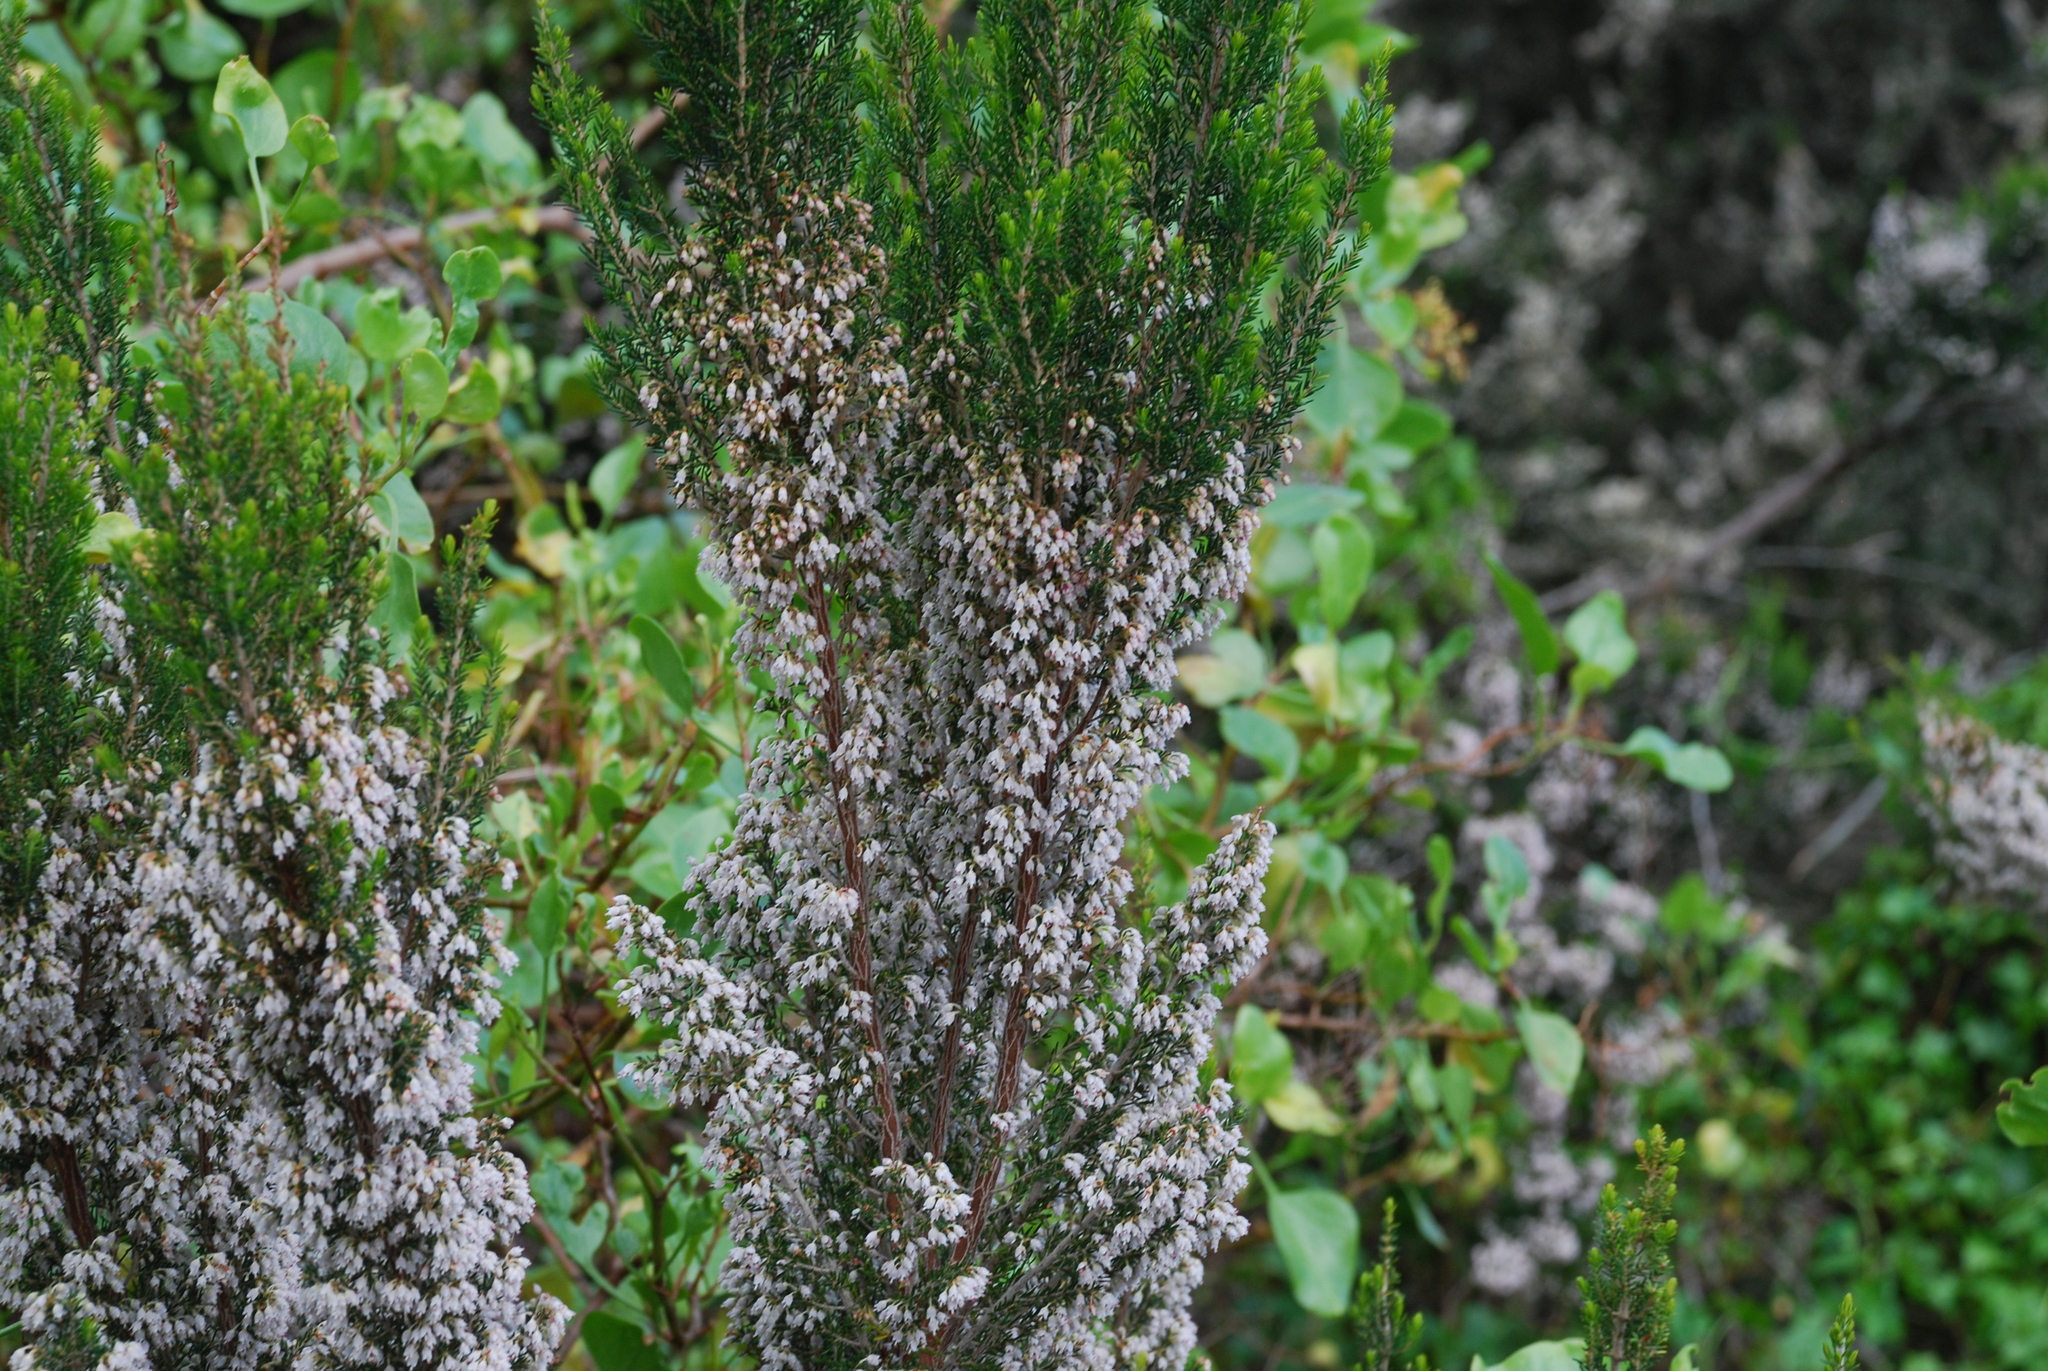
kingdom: Plantae
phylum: Tracheophyta
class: Magnoliopsida
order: Ericales
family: Ericaceae
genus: Erica
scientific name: Erica canariensis
